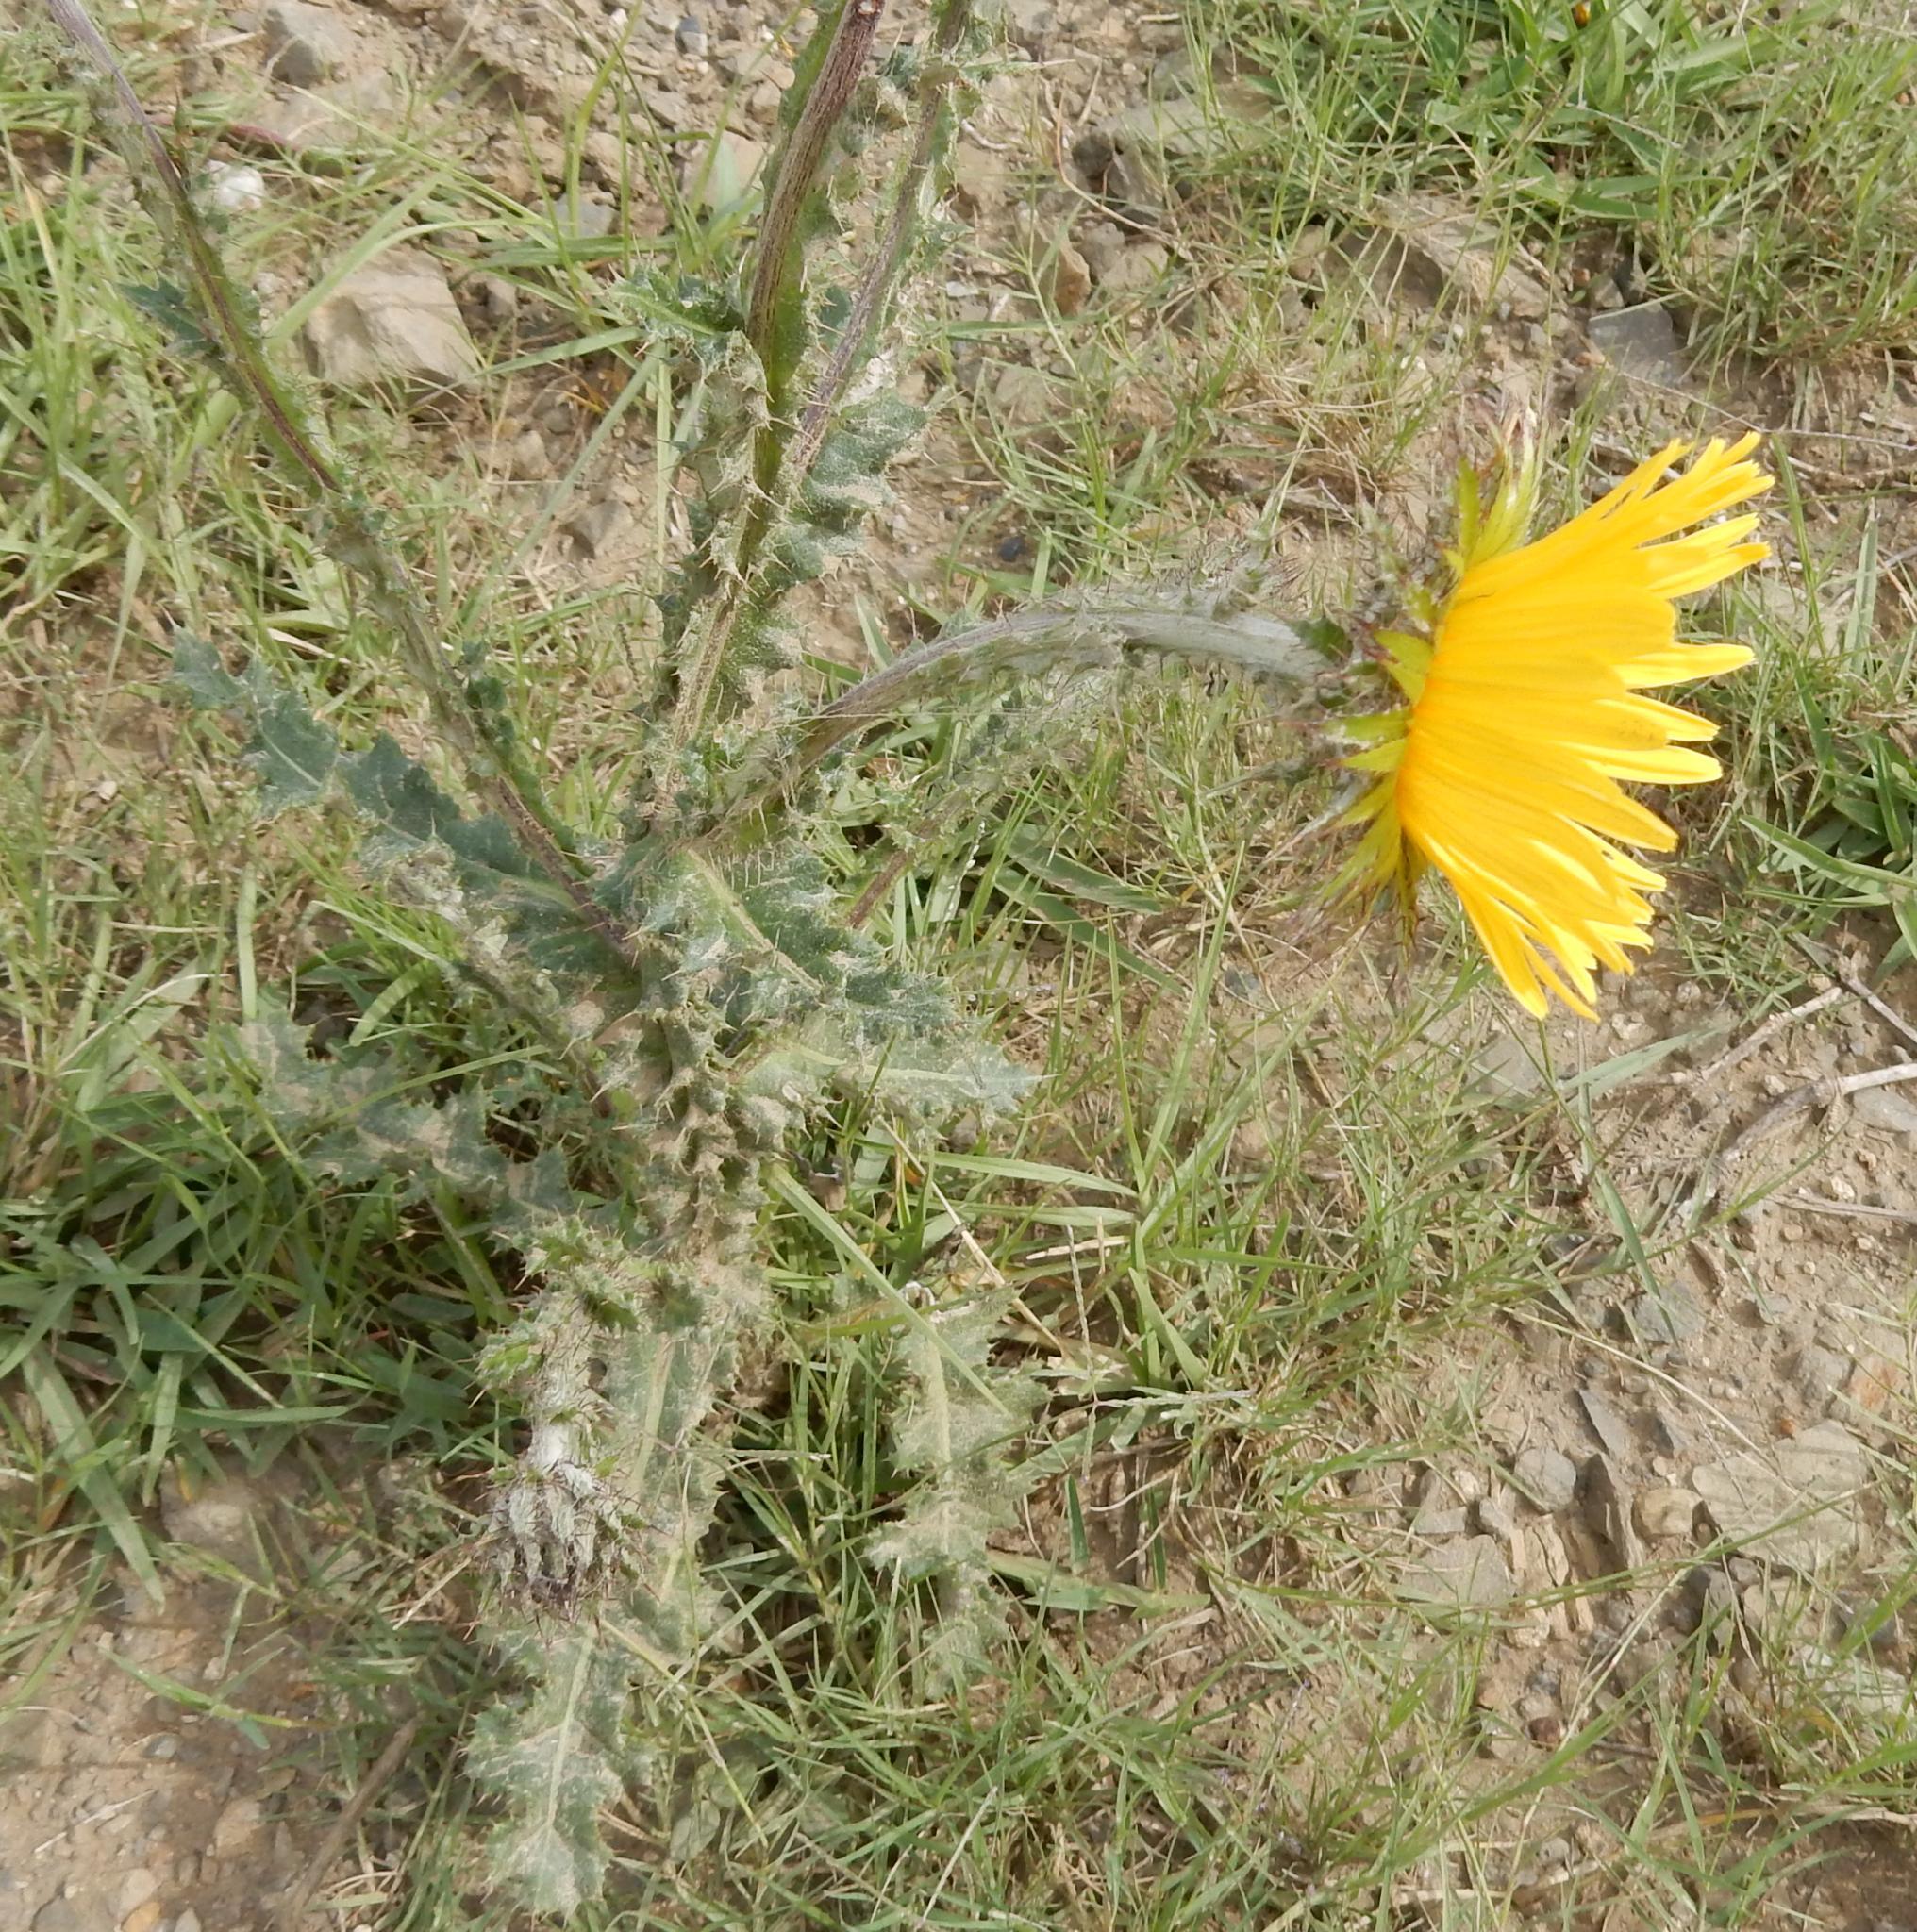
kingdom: Plantae
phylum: Tracheophyta
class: Magnoliopsida
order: Asterales
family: Asteraceae
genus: Berkheya
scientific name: Berkheya decurrens
